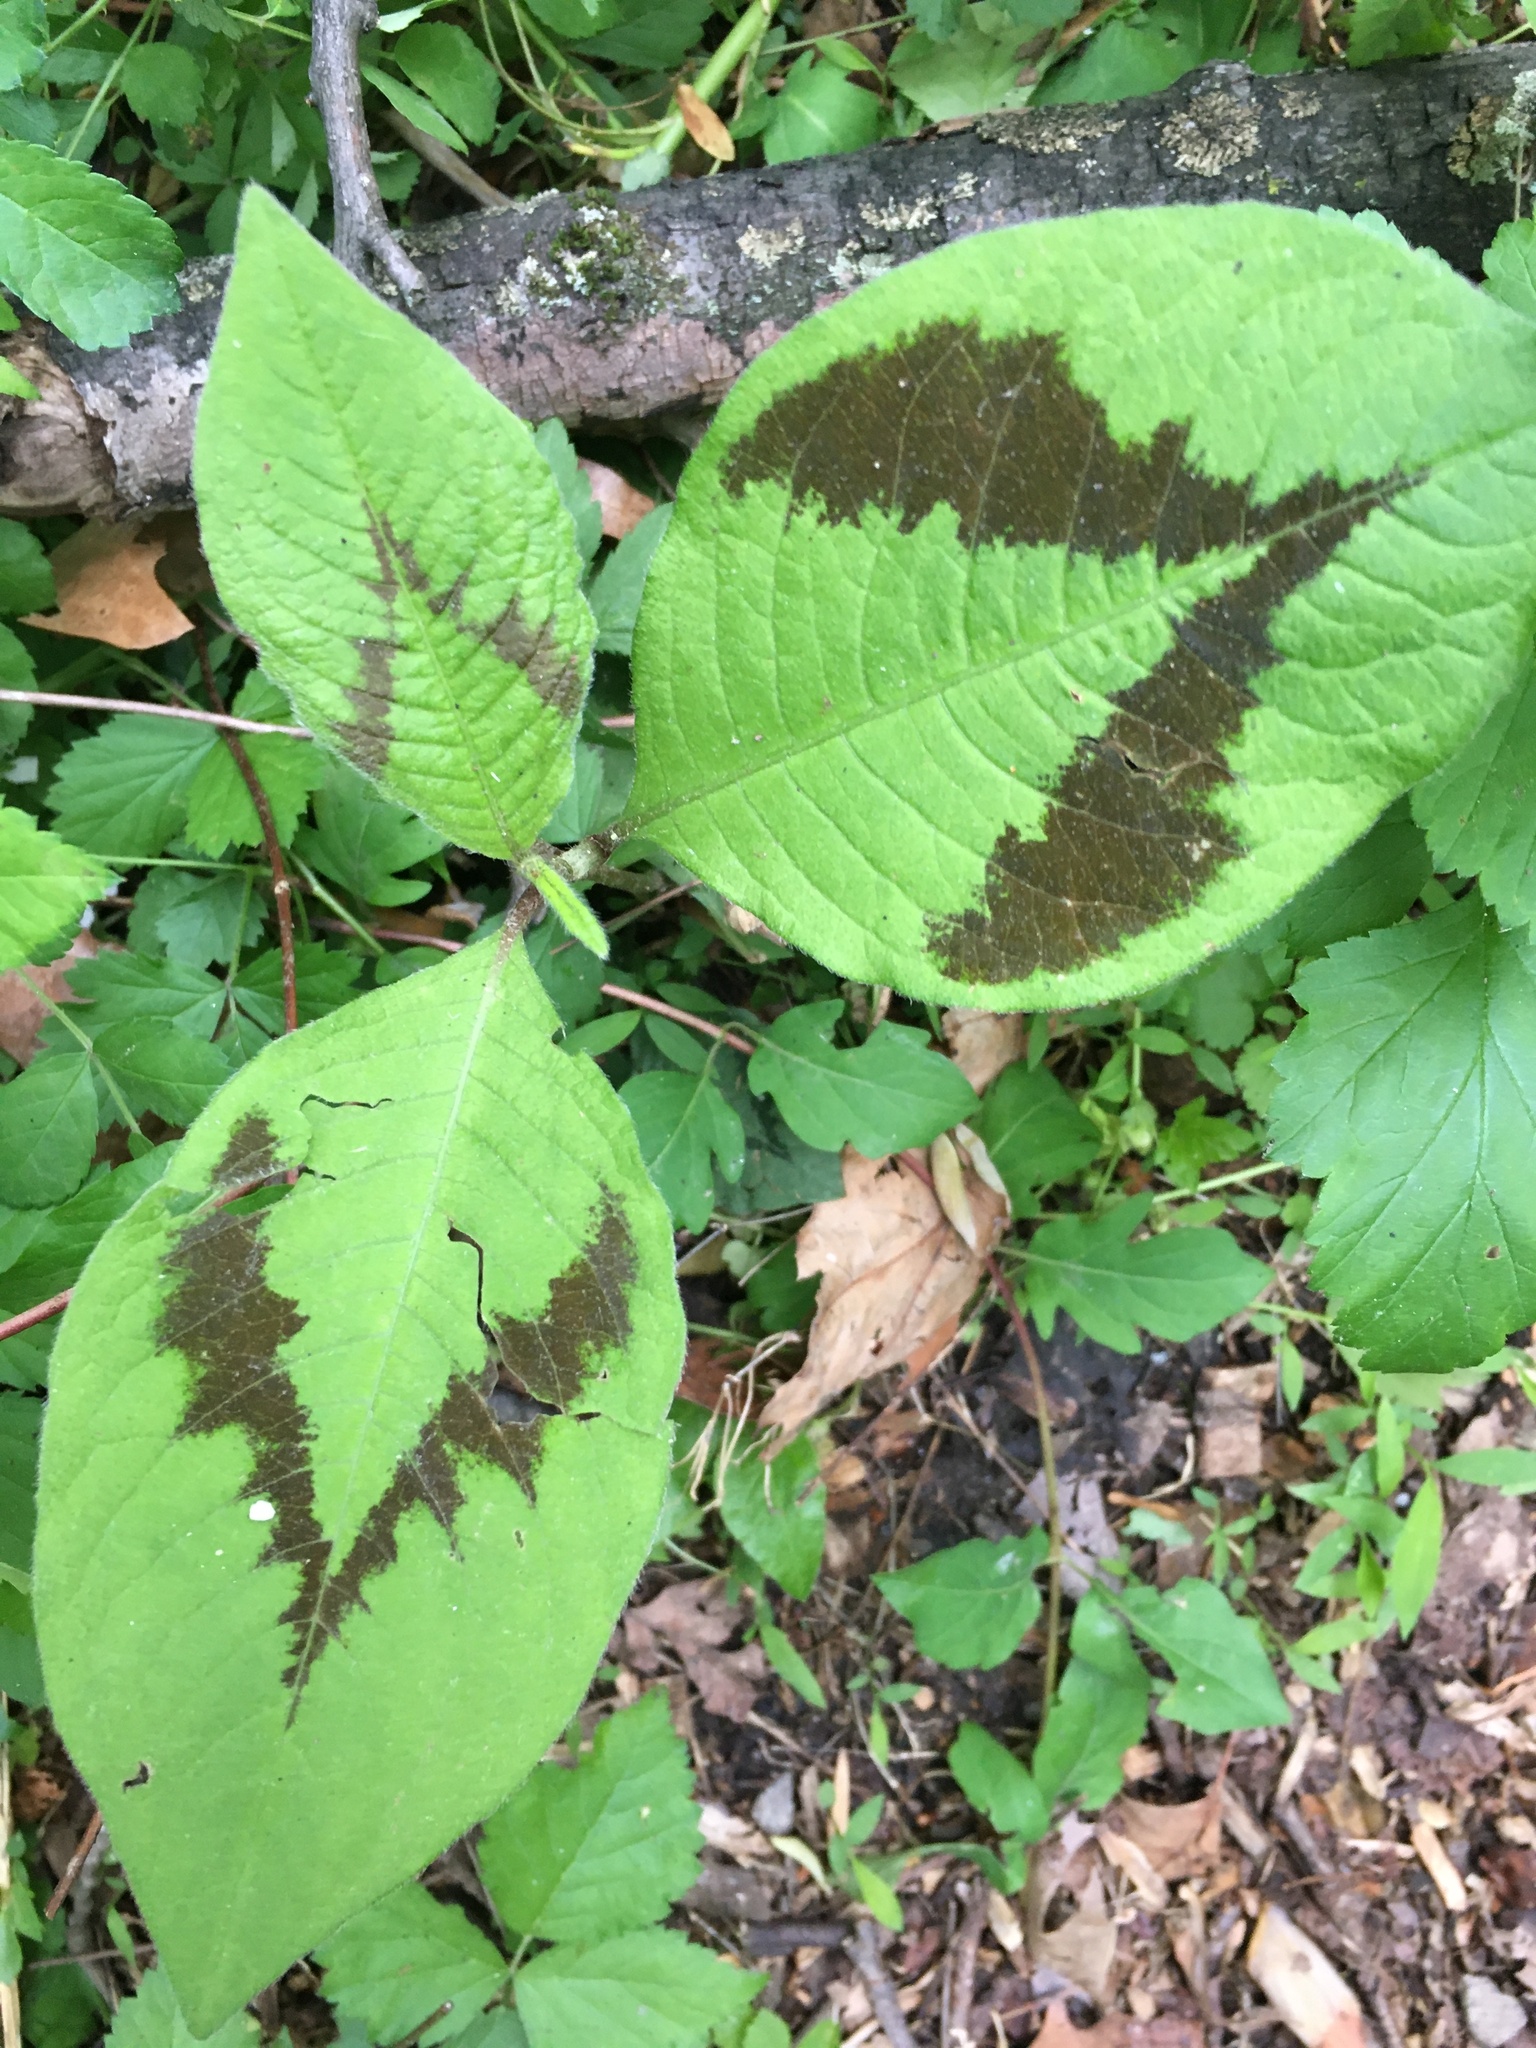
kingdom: Plantae
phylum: Tracheophyta
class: Magnoliopsida
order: Caryophyllales
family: Polygonaceae
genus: Persicaria
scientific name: Persicaria filiformis
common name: Asian jumpseed
